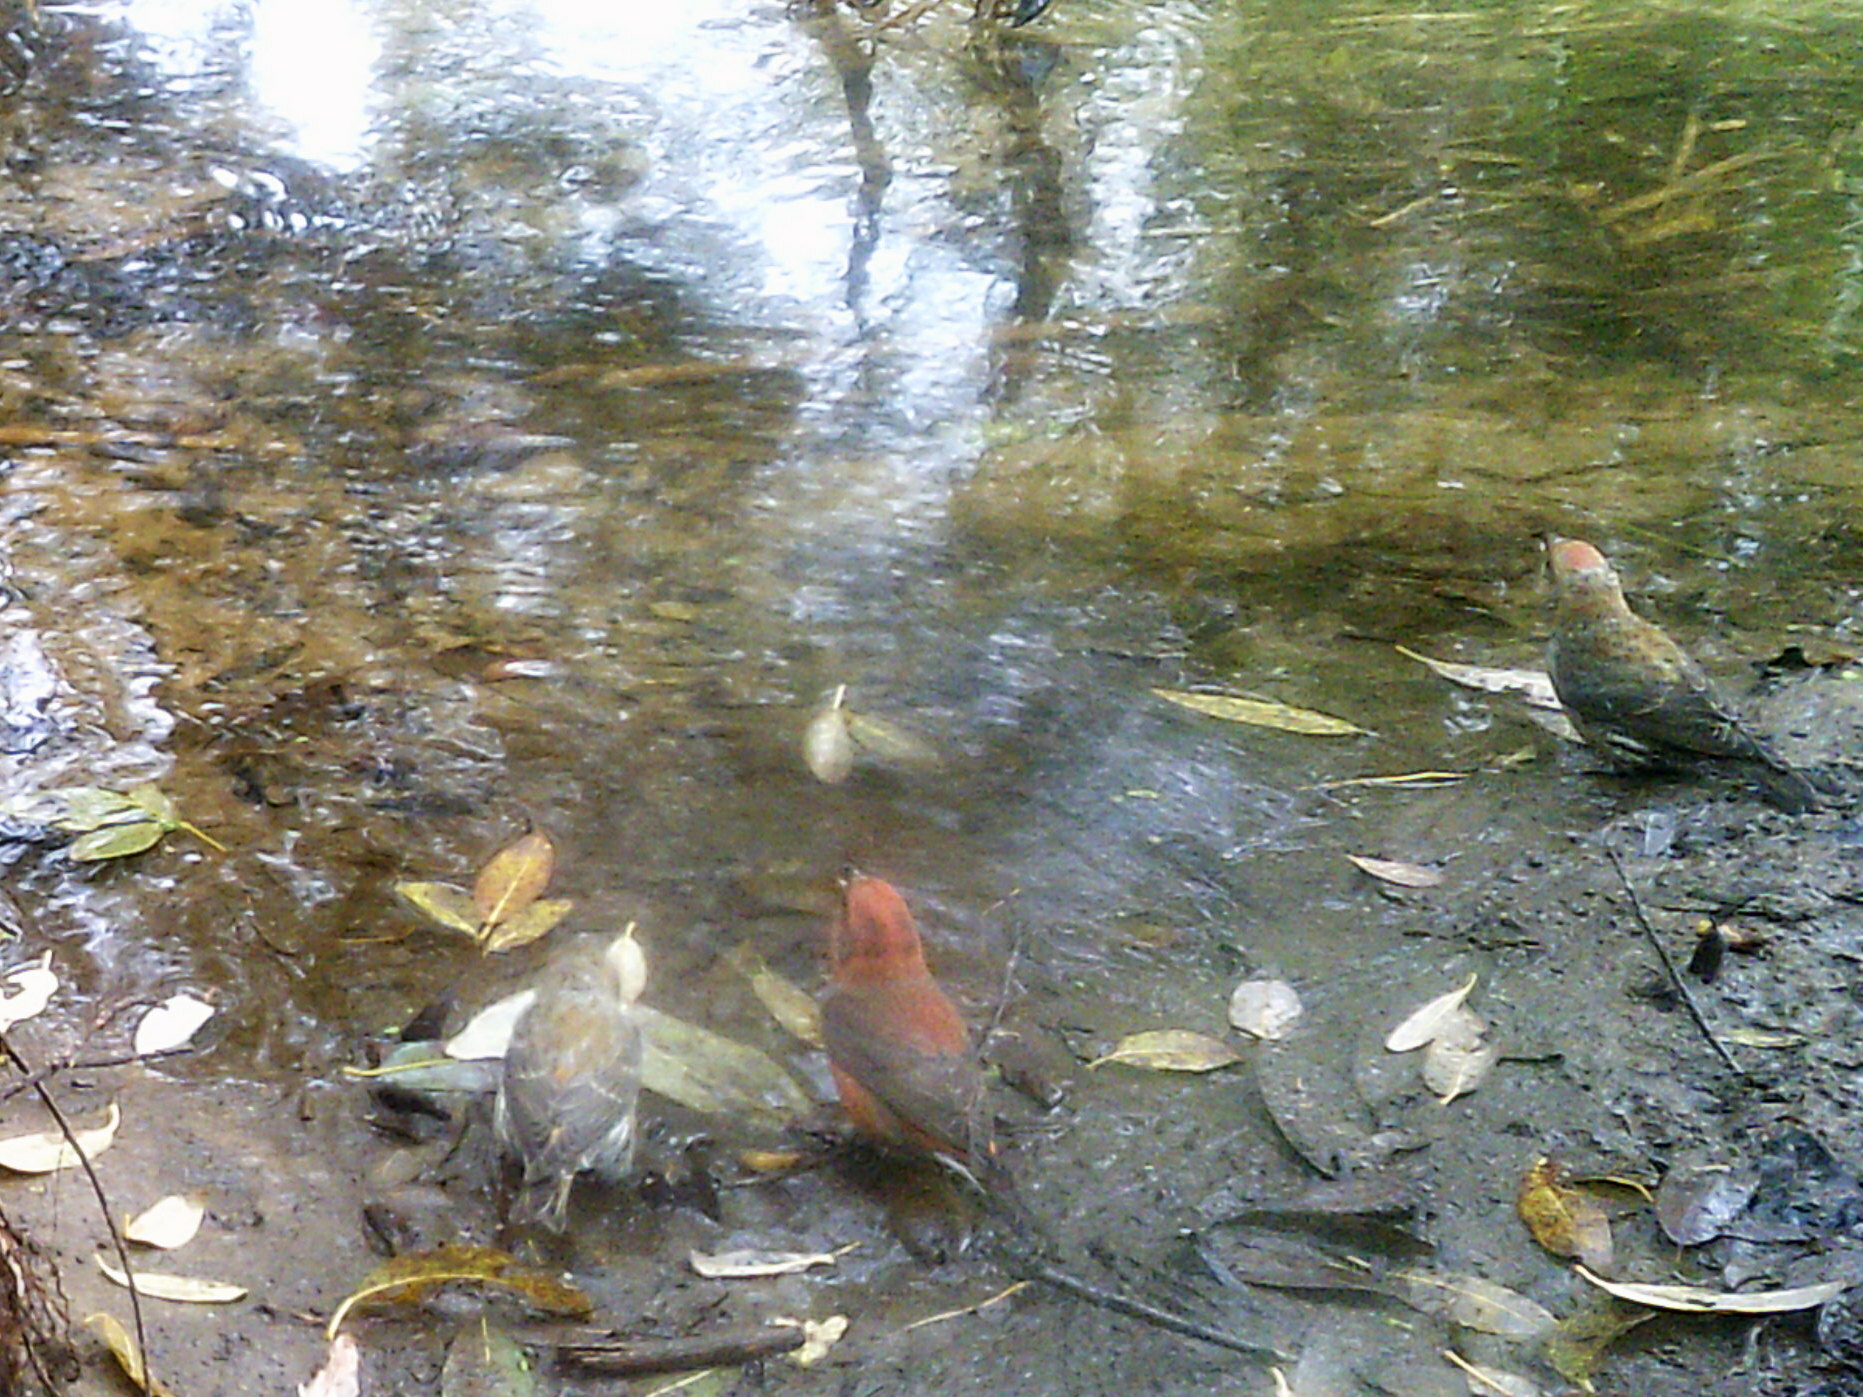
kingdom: Animalia
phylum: Chordata
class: Aves
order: Passeriformes
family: Fringillidae
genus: Loxia
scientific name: Loxia curvirostra
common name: Red crossbill
